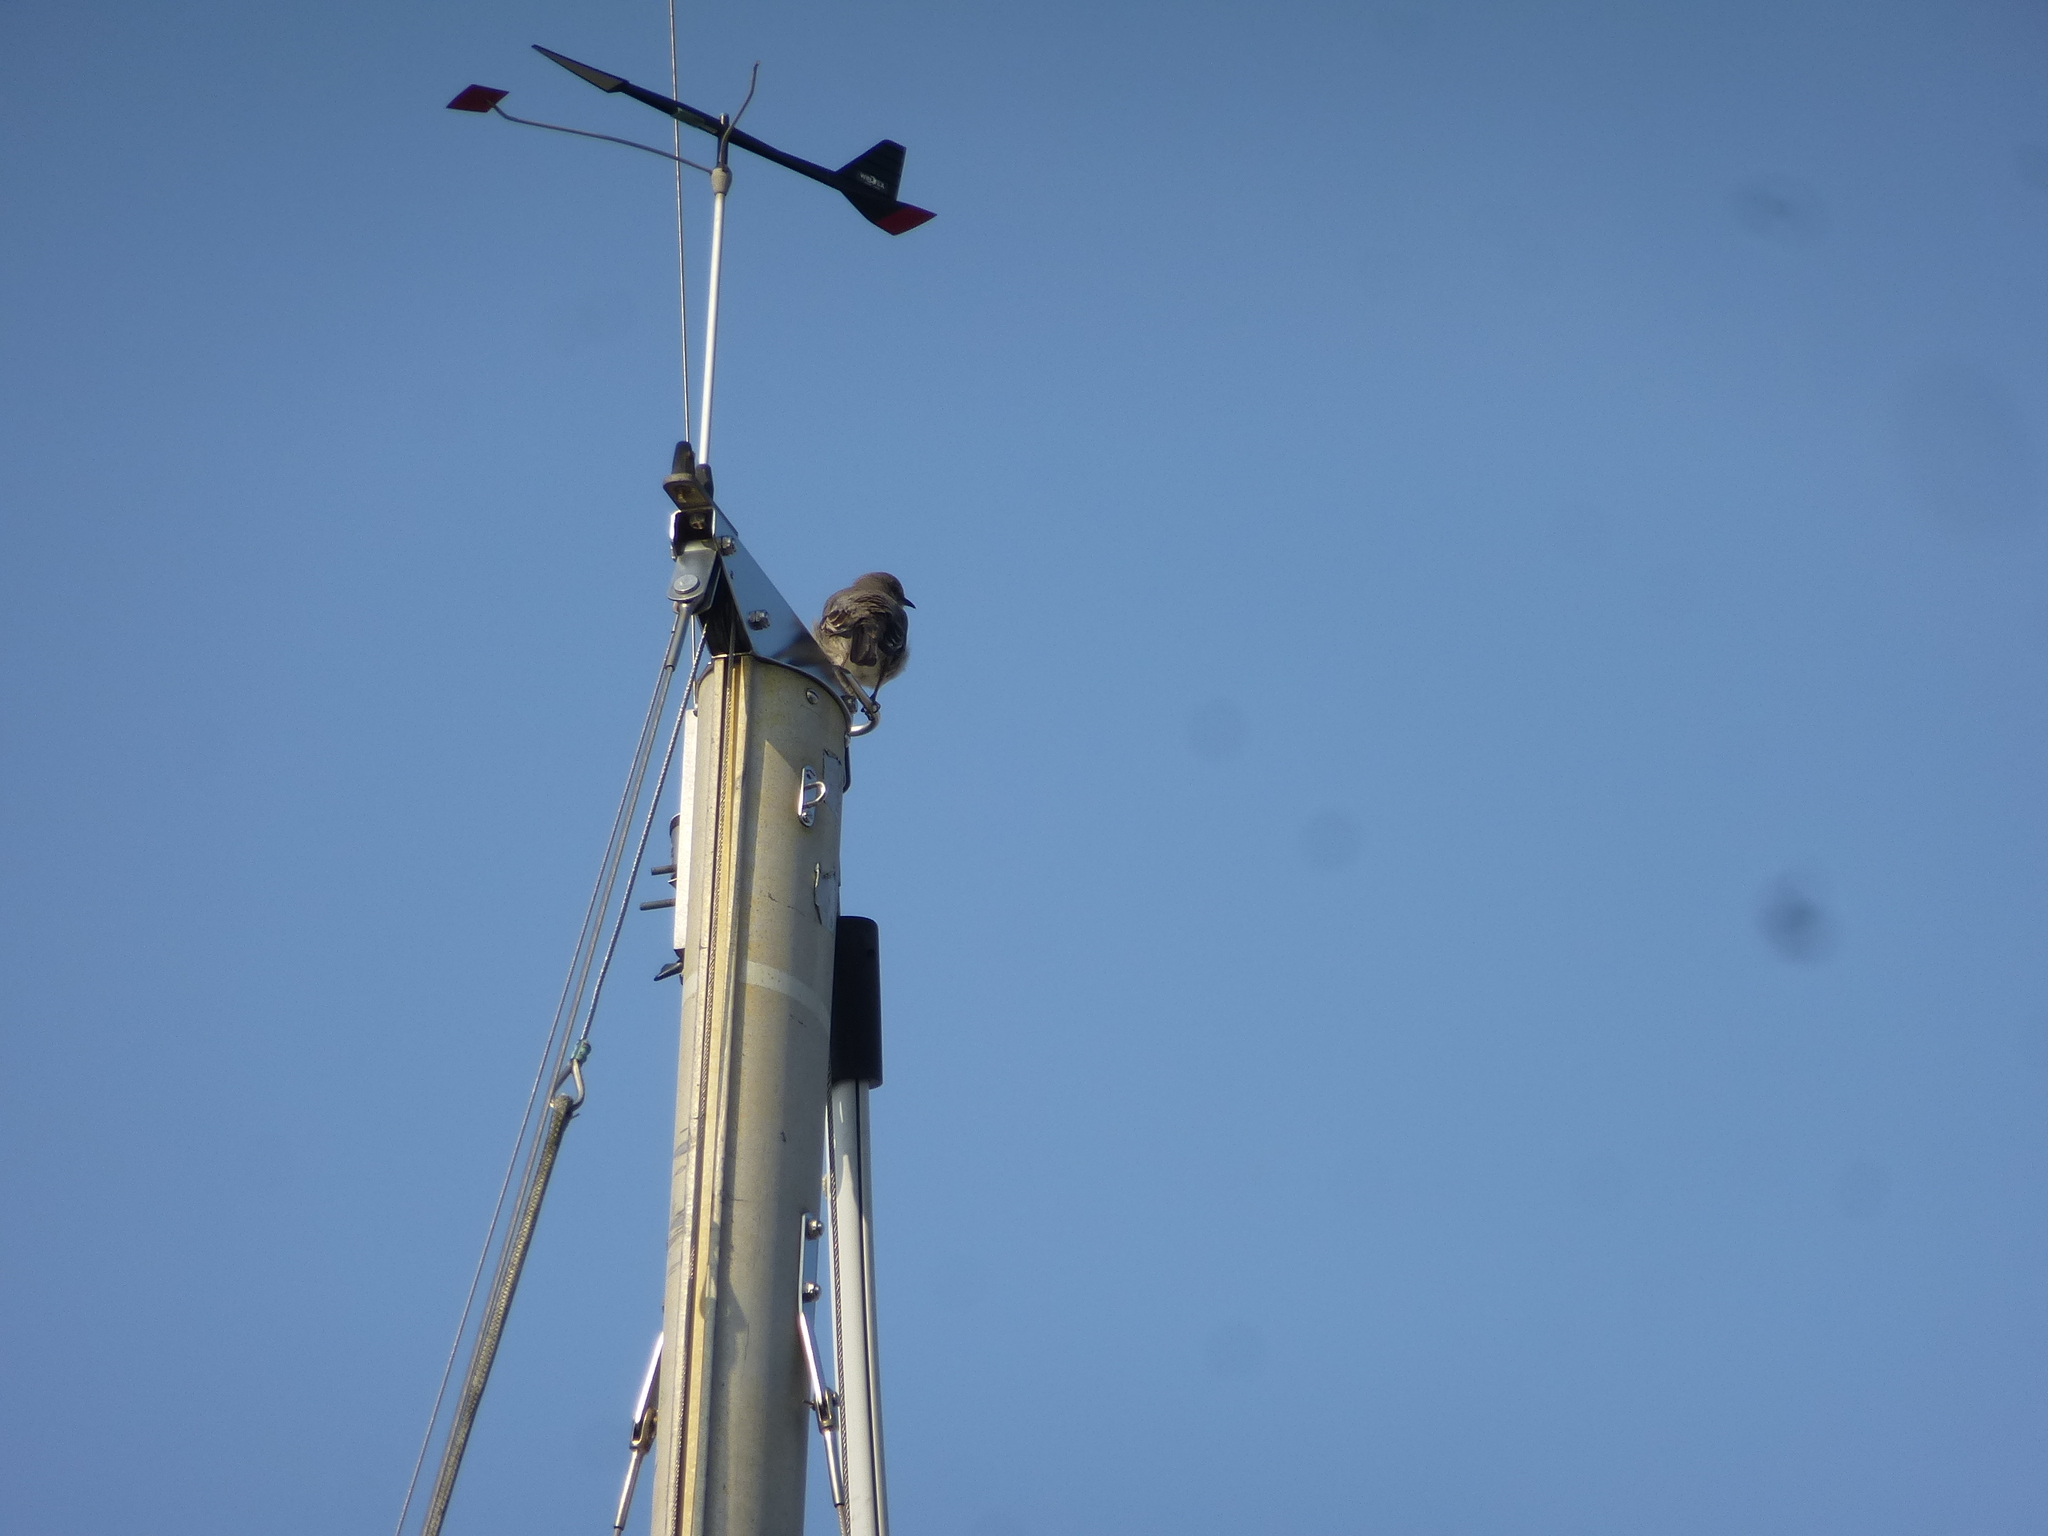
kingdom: Animalia
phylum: Chordata
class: Aves
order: Passeriformes
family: Mimidae
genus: Mimus
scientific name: Mimus polyglottos
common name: Northern mockingbird
